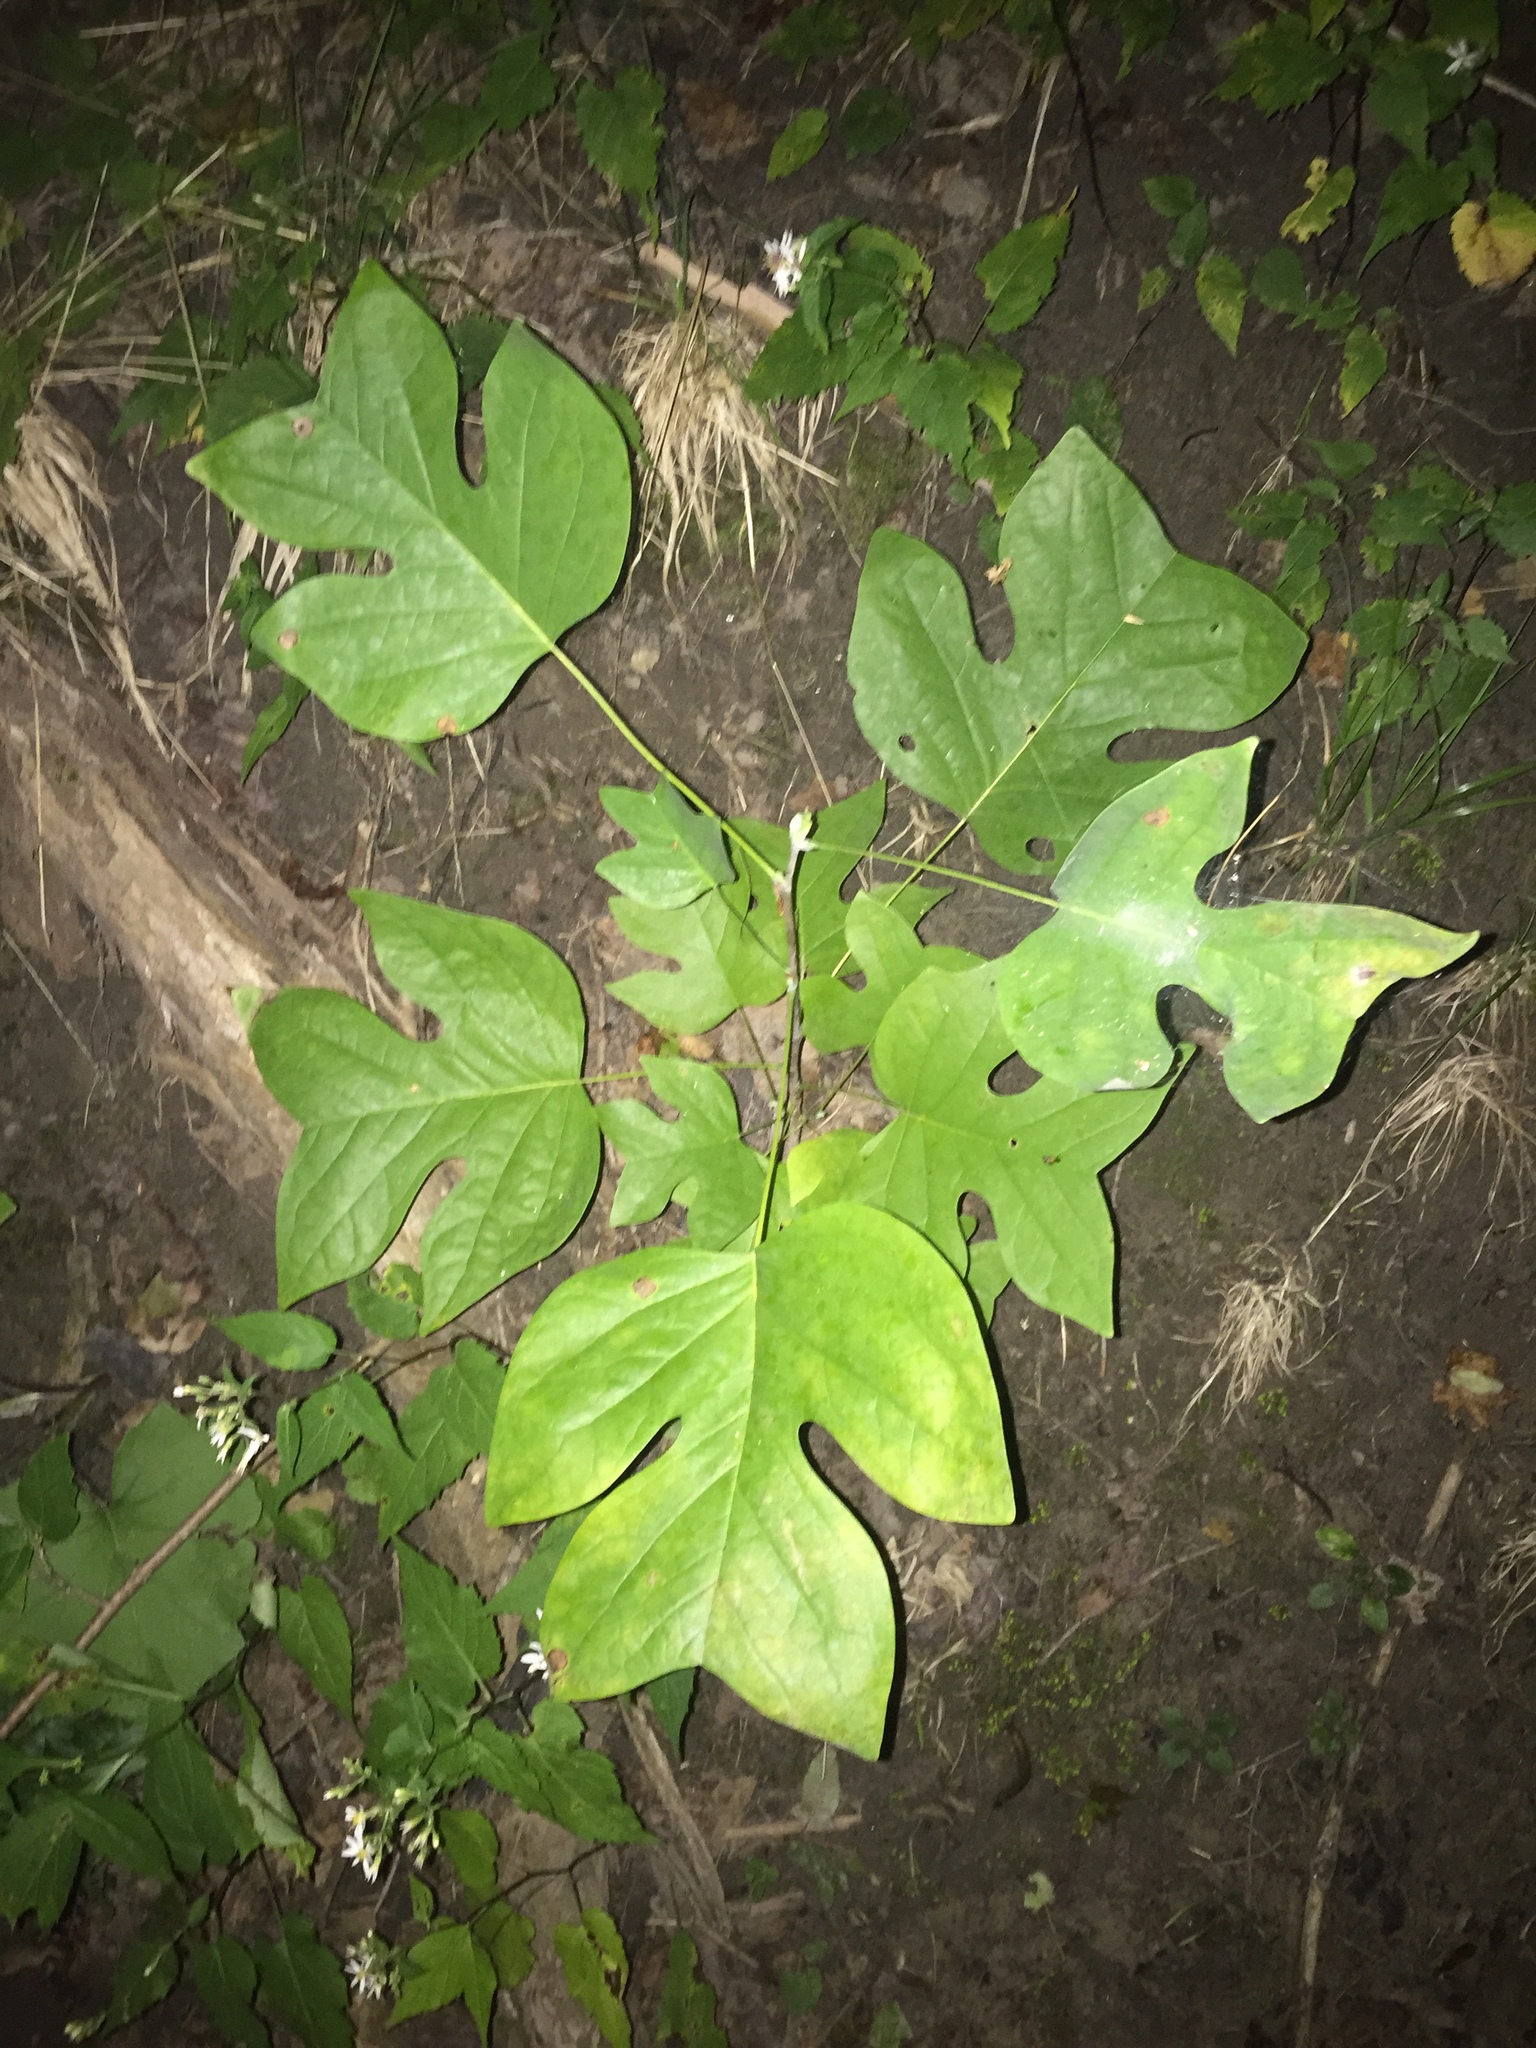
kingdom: Plantae
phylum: Tracheophyta
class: Magnoliopsida
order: Magnoliales
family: Magnoliaceae
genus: Liriodendron
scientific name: Liriodendron tulipifera
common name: Tulip tree
